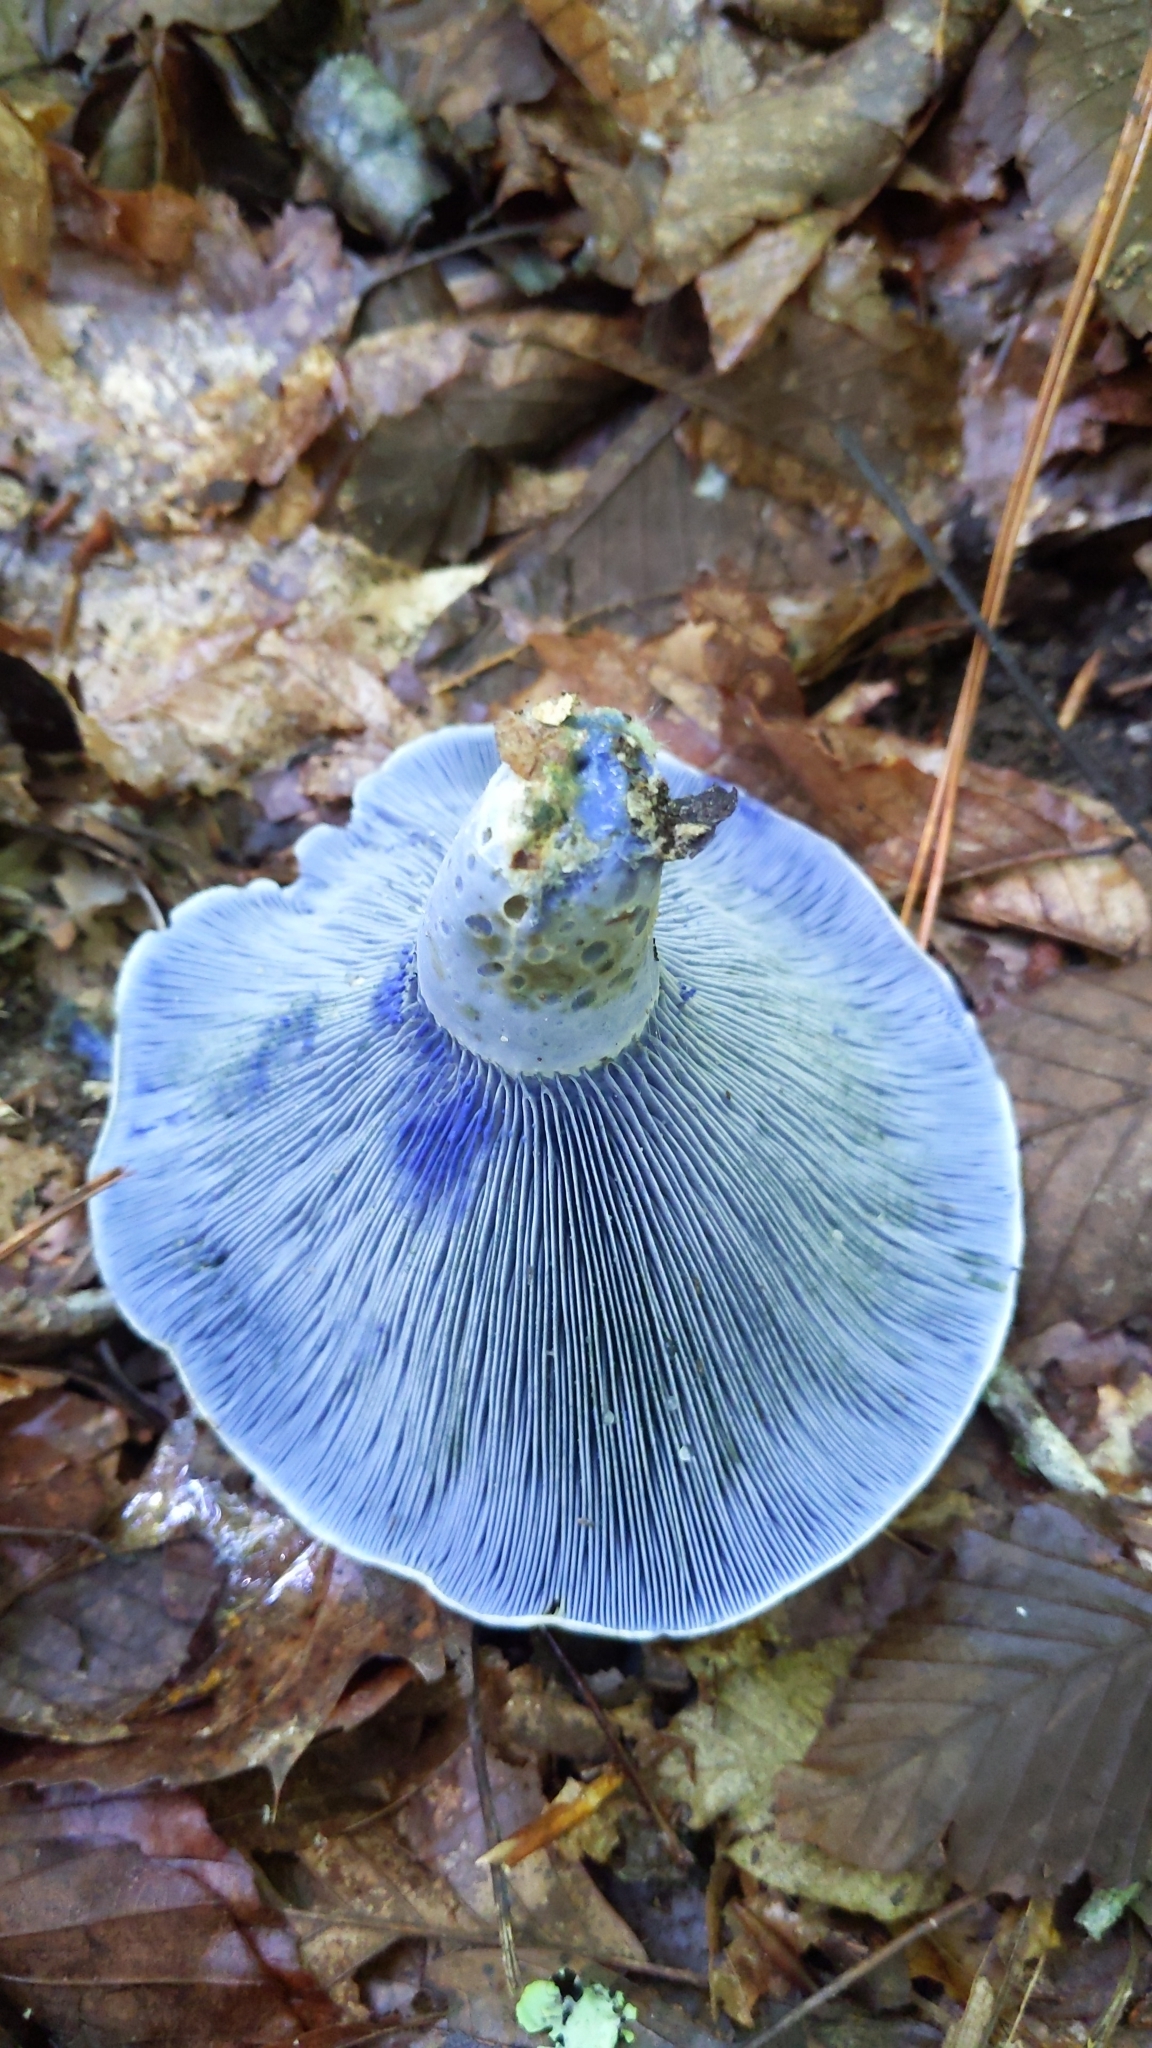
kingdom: Fungi
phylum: Basidiomycota
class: Agaricomycetes
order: Russulales
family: Russulaceae
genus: Lactarius
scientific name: Lactarius indigo
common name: Indigo milk cap
